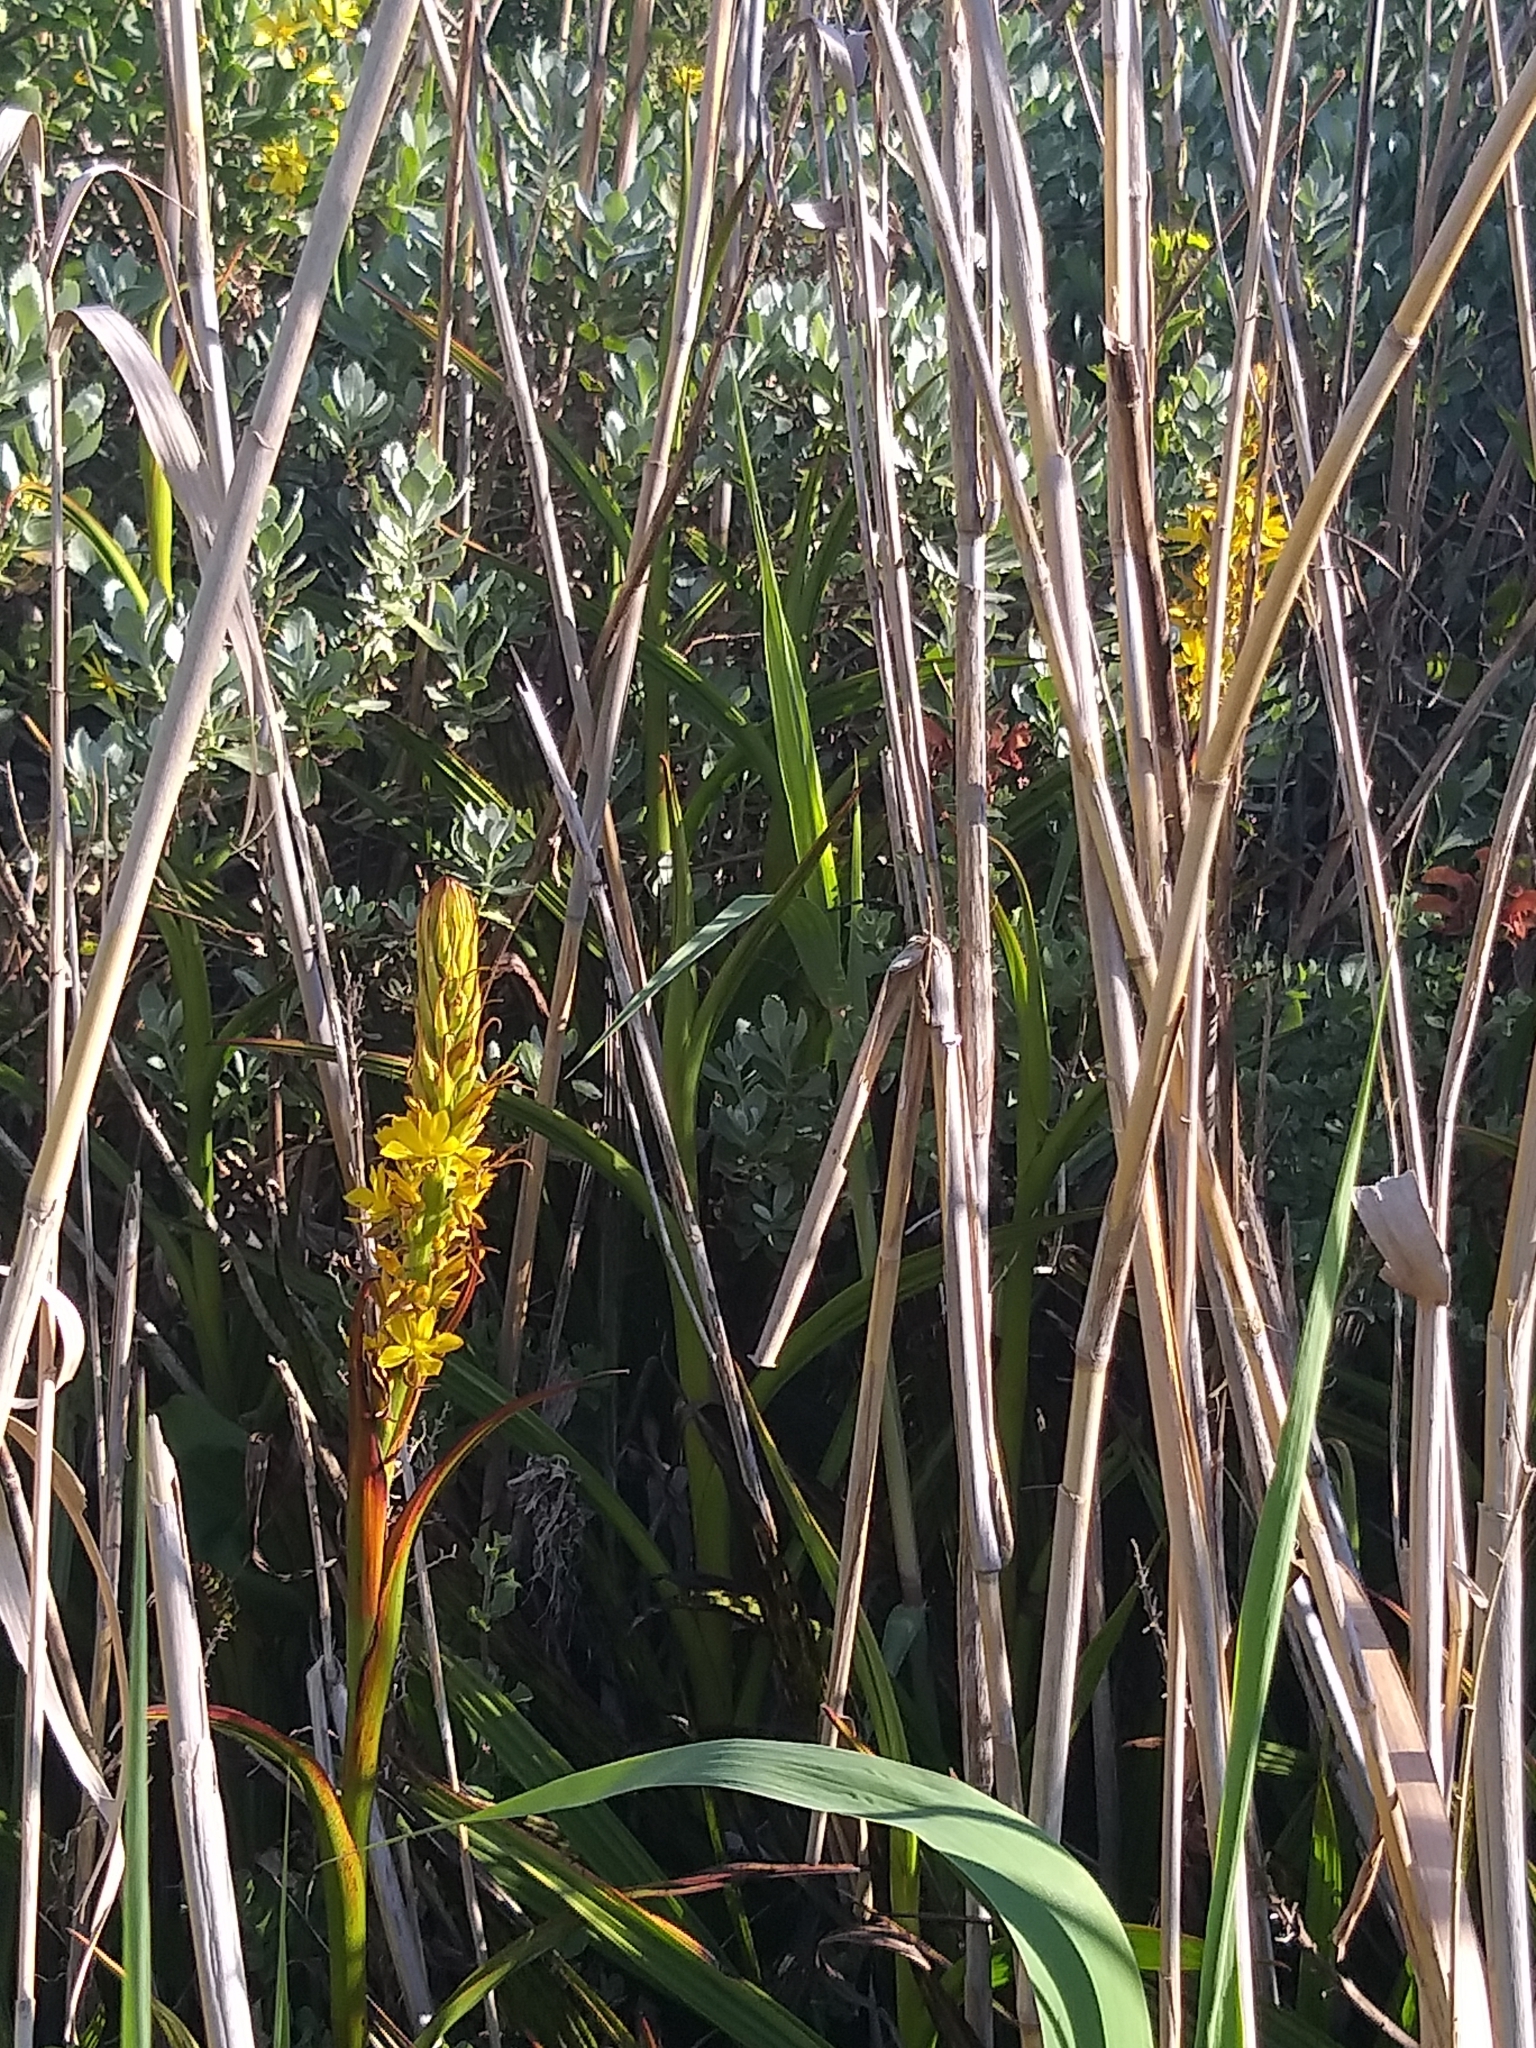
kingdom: Plantae
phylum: Tracheophyta
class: Liliopsida
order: Commelinales
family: Haemodoraceae
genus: Wachendorfia
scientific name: Wachendorfia thyrsiflora
